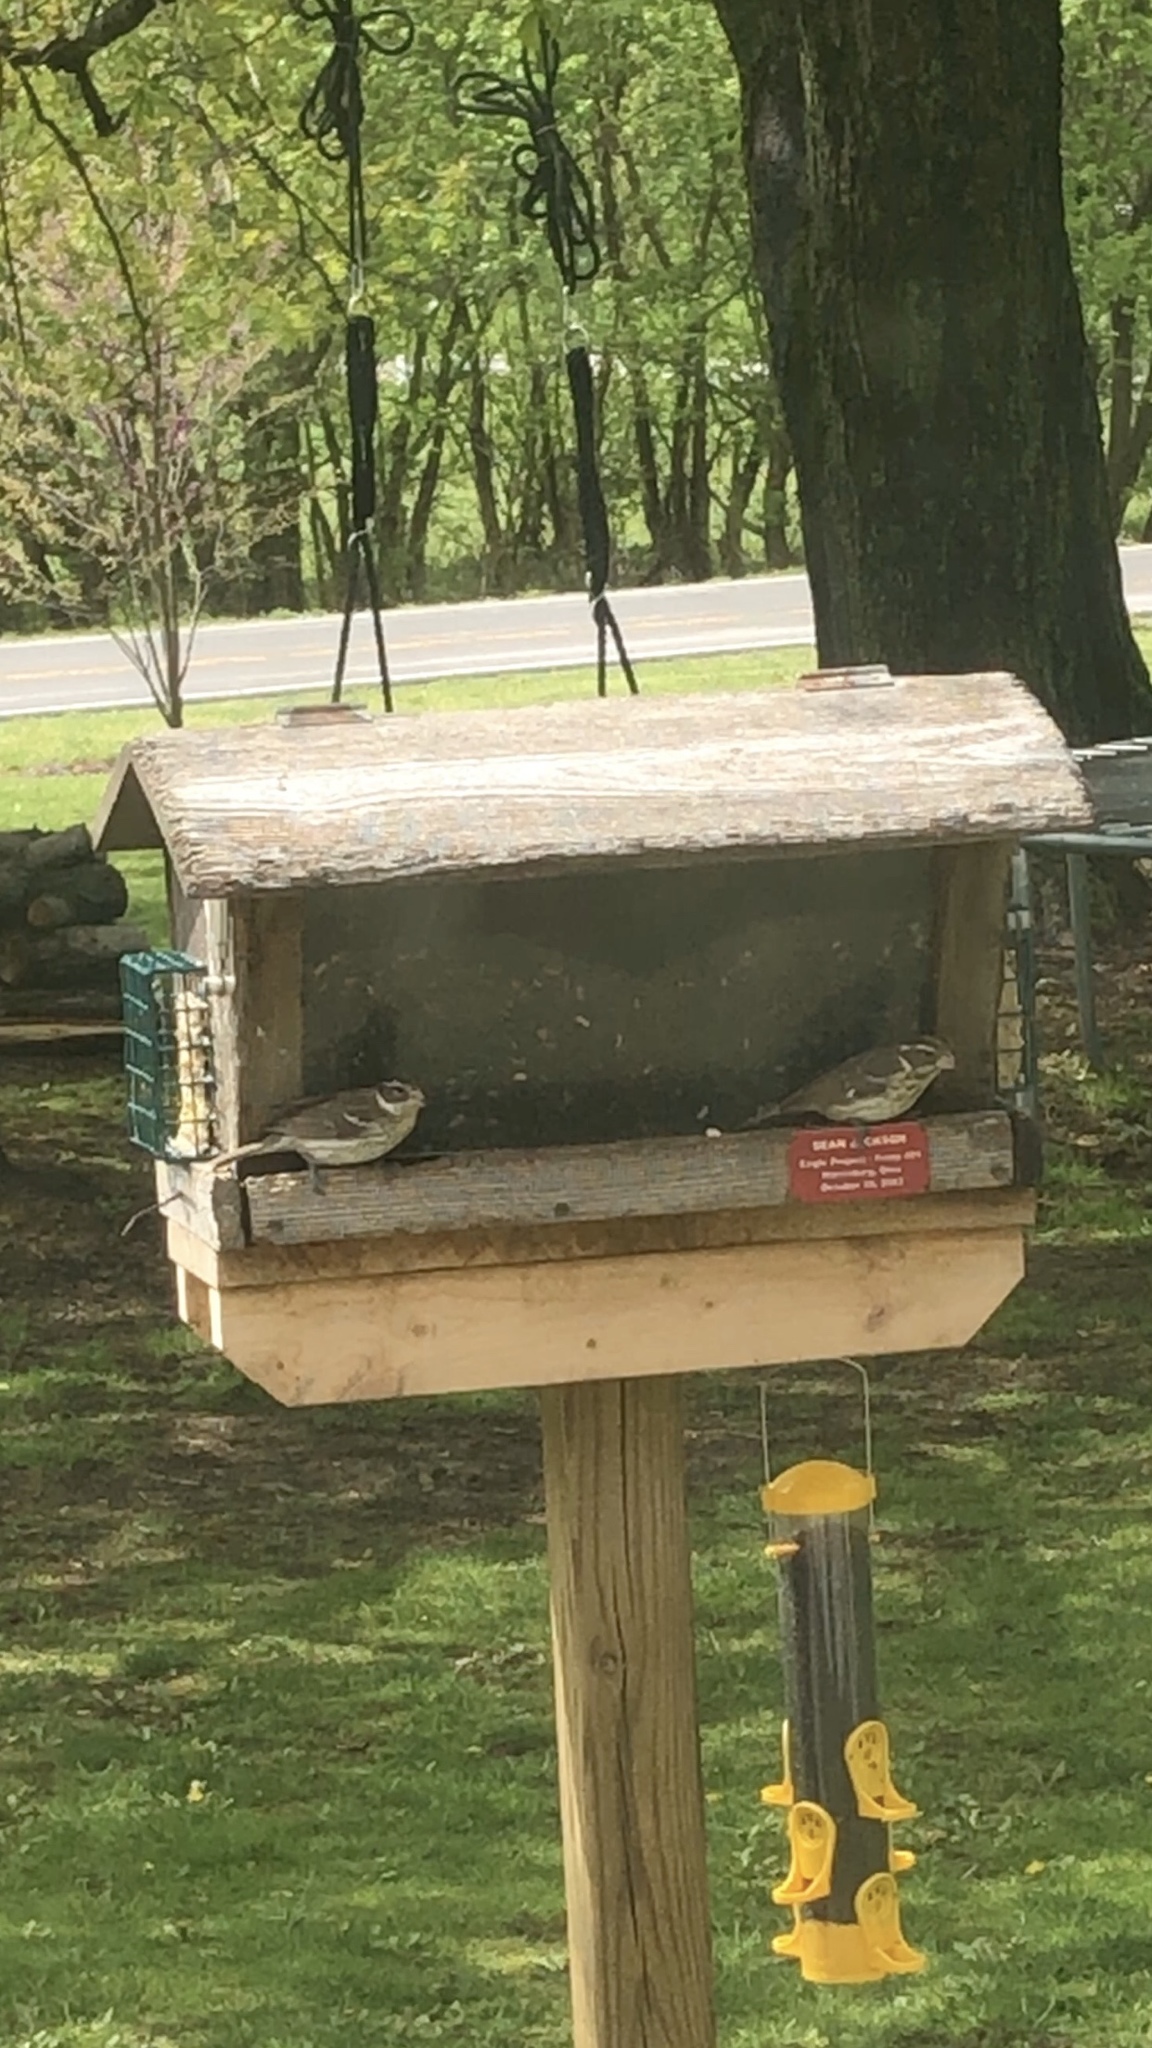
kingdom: Animalia
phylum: Chordata
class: Aves
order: Passeriformes
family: Cardinalidae
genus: Pheucticus
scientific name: Pheucticus ludovicianus
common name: Rose-breasted grosbeak
